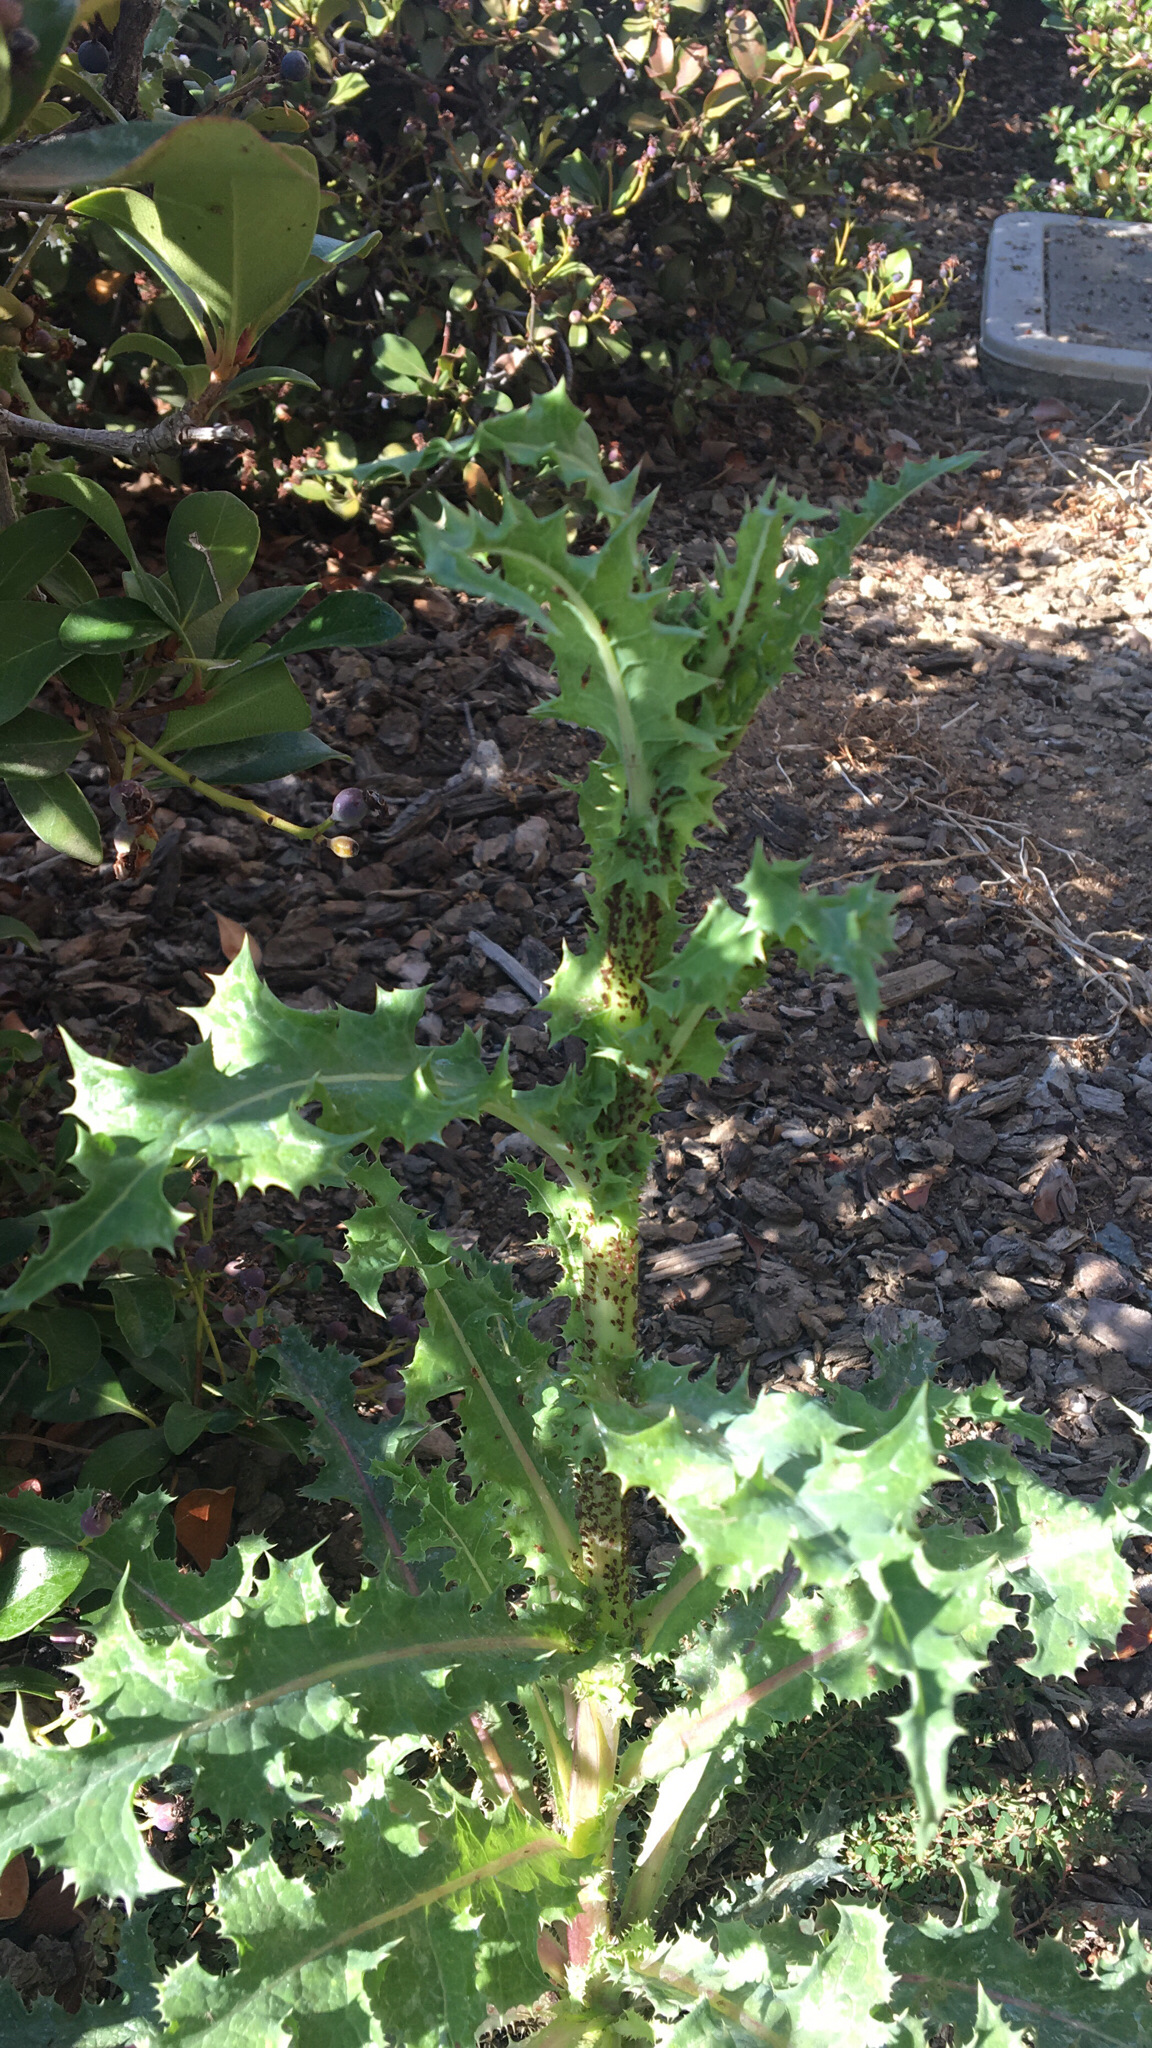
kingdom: Plantae
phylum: Tracheophyta
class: Magnoliopsida
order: Asterales
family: Asteraceae
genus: Sonchus
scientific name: Sonchus asper
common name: Prickly sow-thistle
